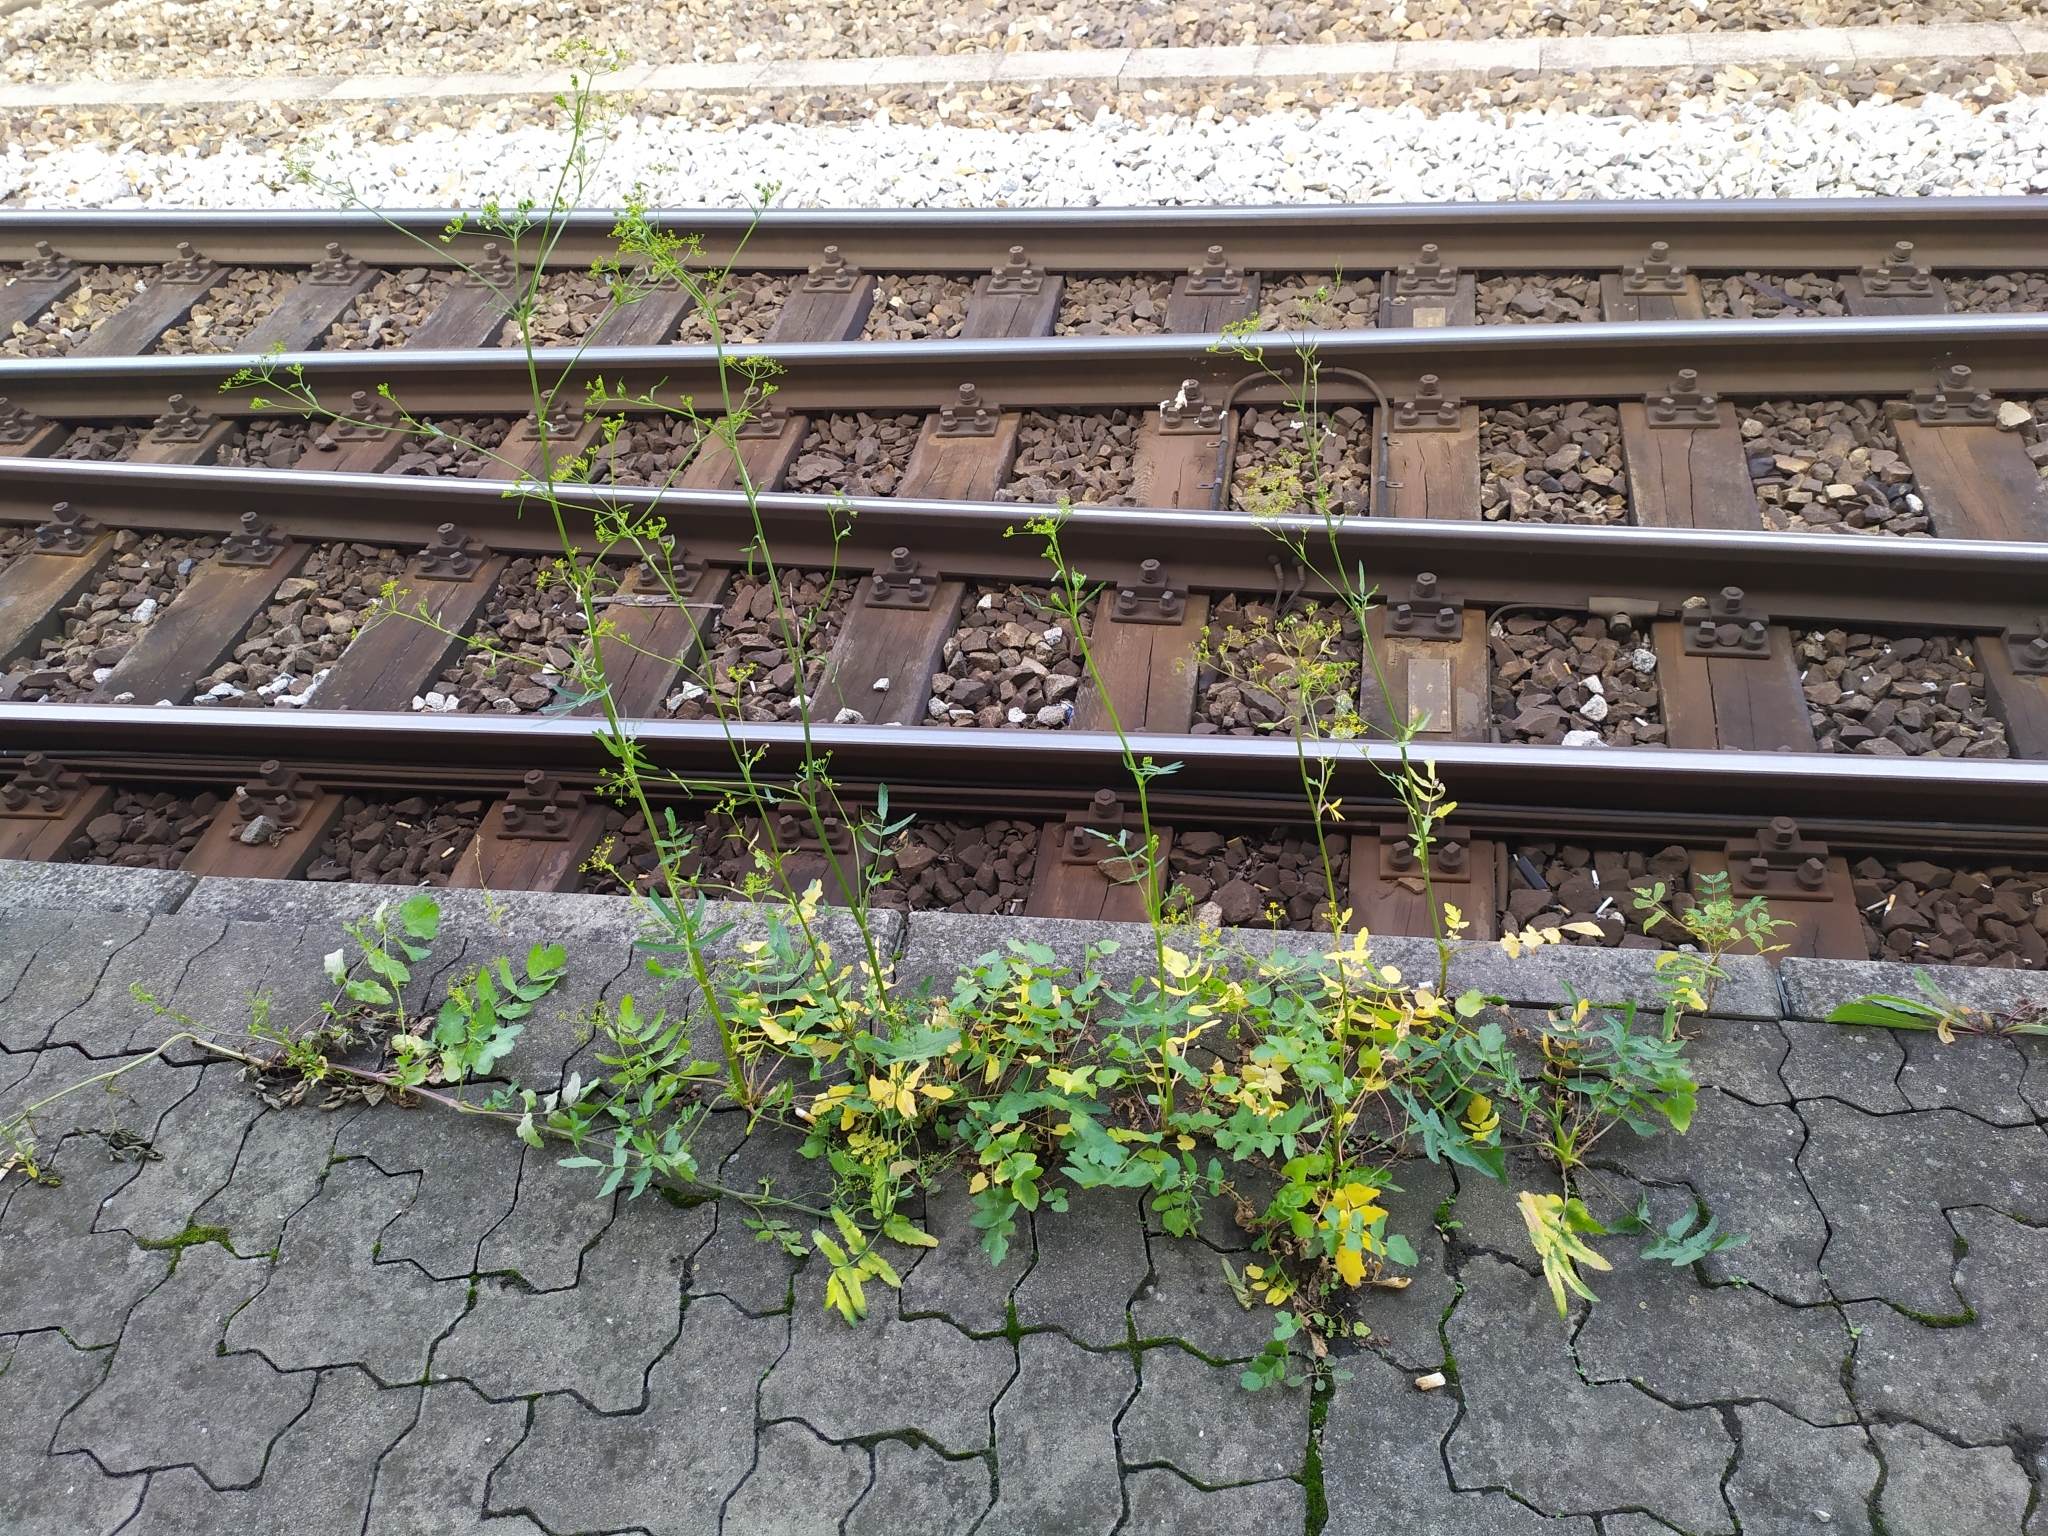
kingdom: Plantae
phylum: Tracheophyta
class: Magnoliopsida
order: Apiales
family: Apiaceae
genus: Pastinaca
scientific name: Pastinaca sativa
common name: Wild parsnip
